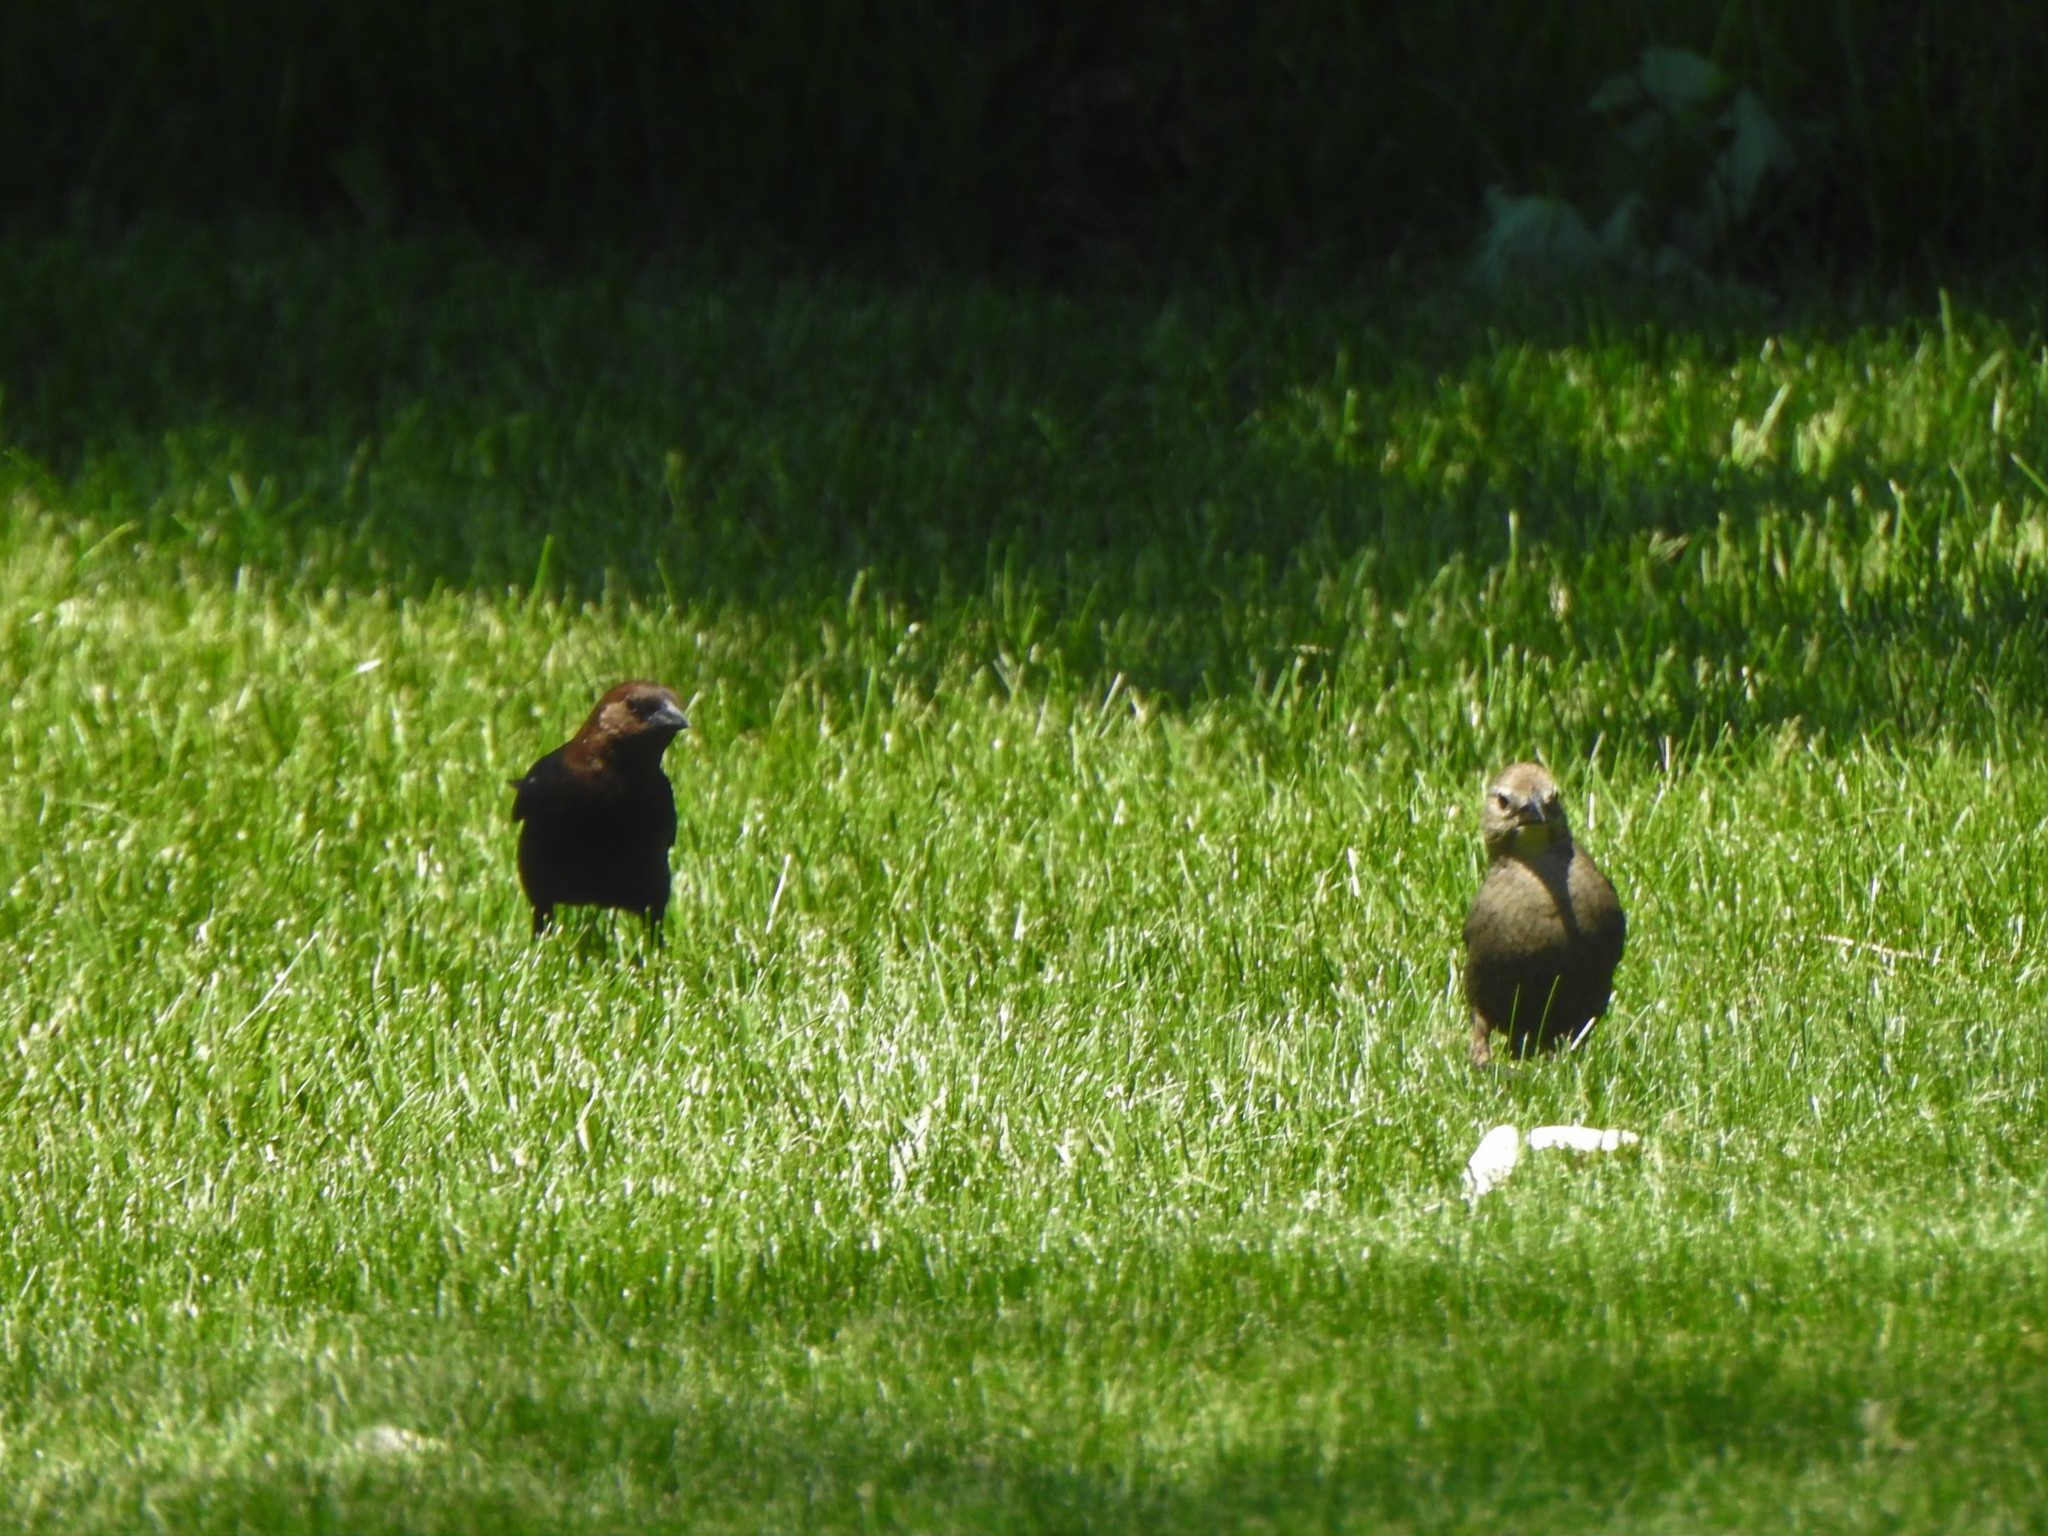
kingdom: Animalia
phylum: Chordata
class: Aves
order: Passeriformes
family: Icteridae
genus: Molothrus
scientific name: Molothrus ater
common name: Brown-headed cowbird
